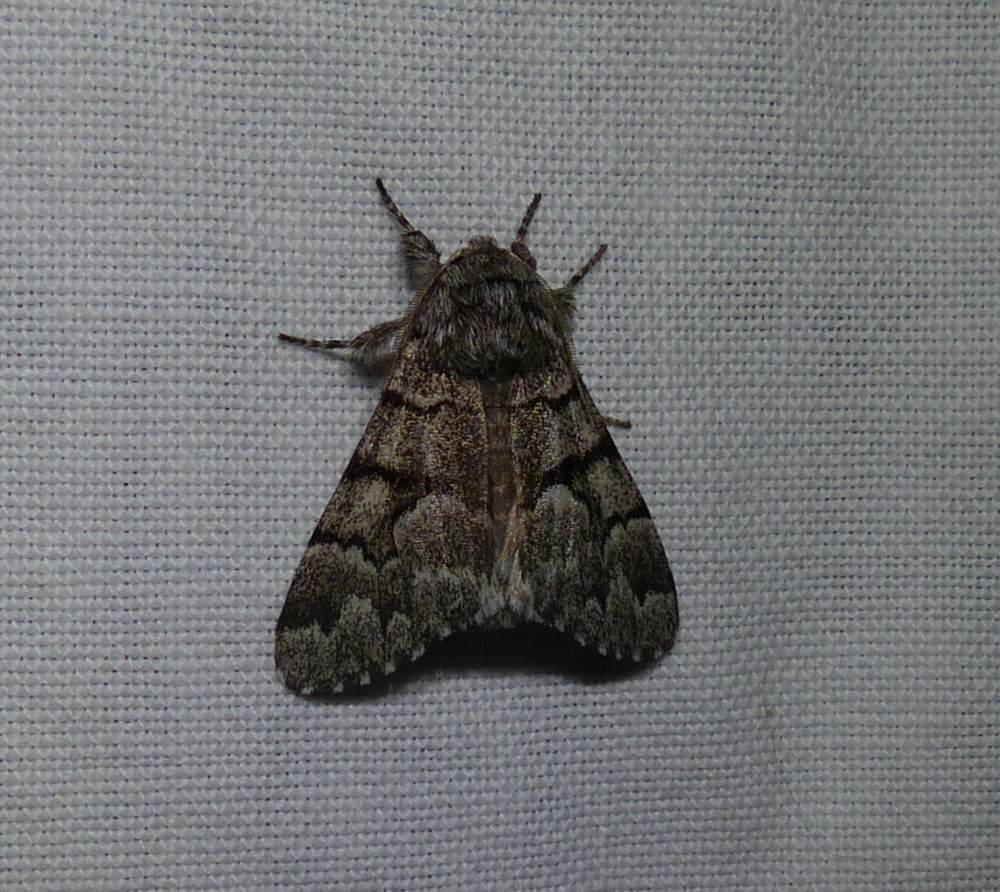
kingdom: Animalia
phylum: Arthropoda
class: Insecta
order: Lepidoptera
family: Noctuidae
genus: Panthea
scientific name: Panthea furcilla
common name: Eastern panthea moth
